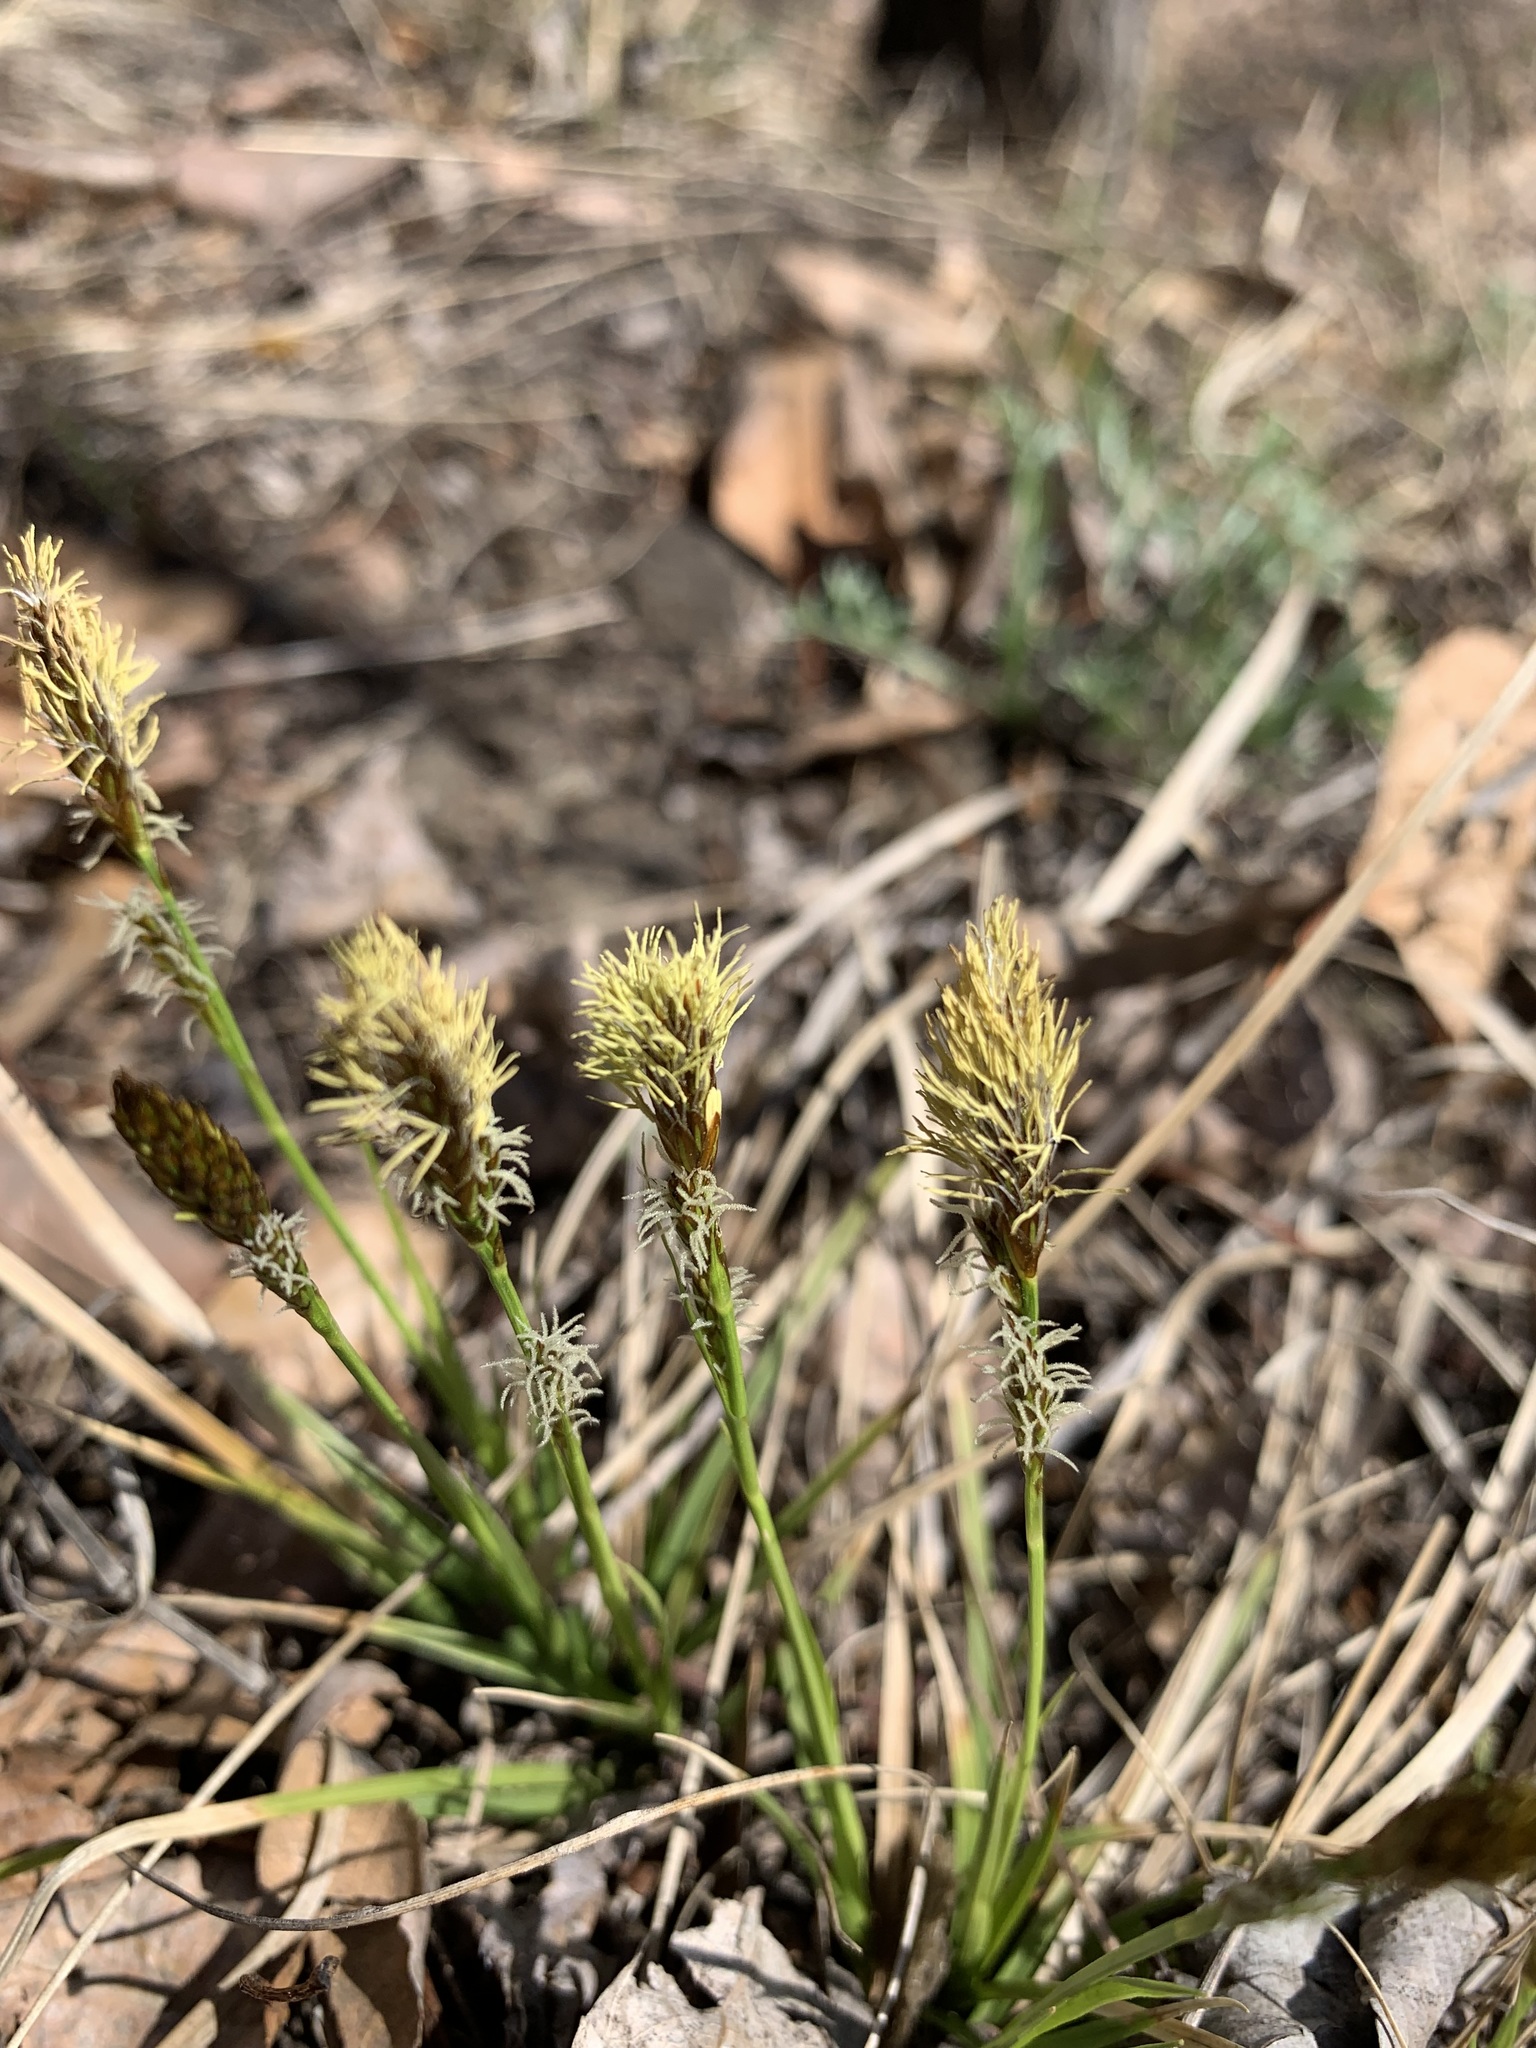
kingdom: Plantae
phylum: Tracheophyta
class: Liliopsida
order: Poales
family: Cyperaceae
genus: Carex
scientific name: Carex ericetorum
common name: Rare spring-sedge
